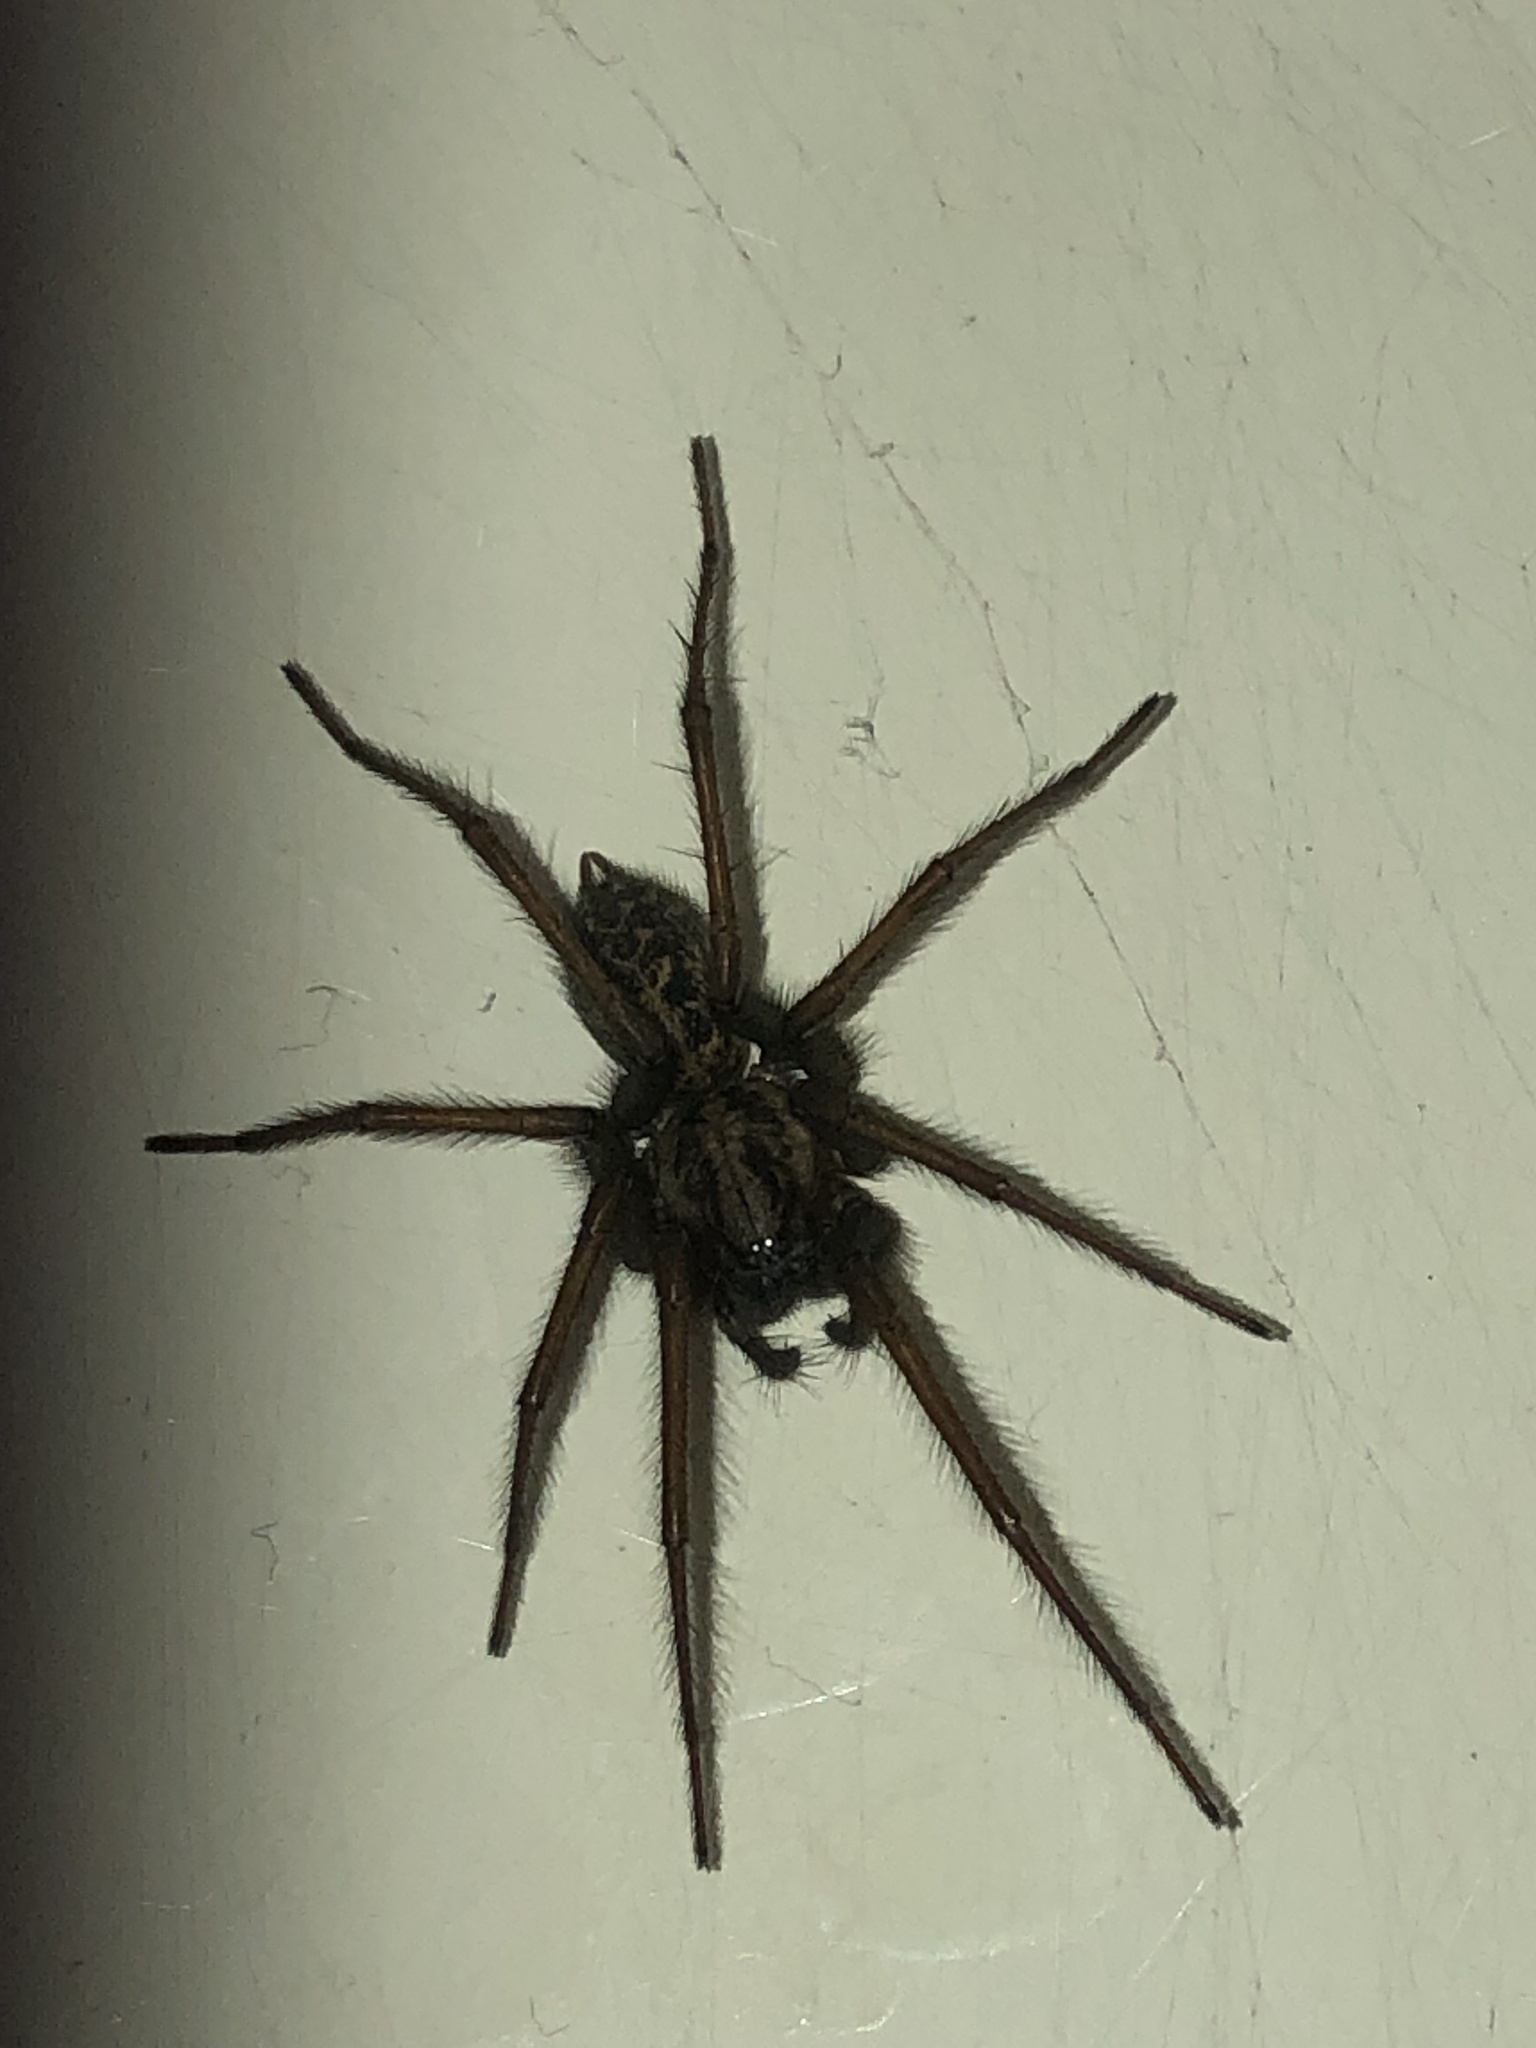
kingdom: Animalia
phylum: Arthropoda
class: Arachnida
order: Araneae
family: Agelenidae
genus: Eratigena
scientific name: Eratigena duellica
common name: Giant house spider
